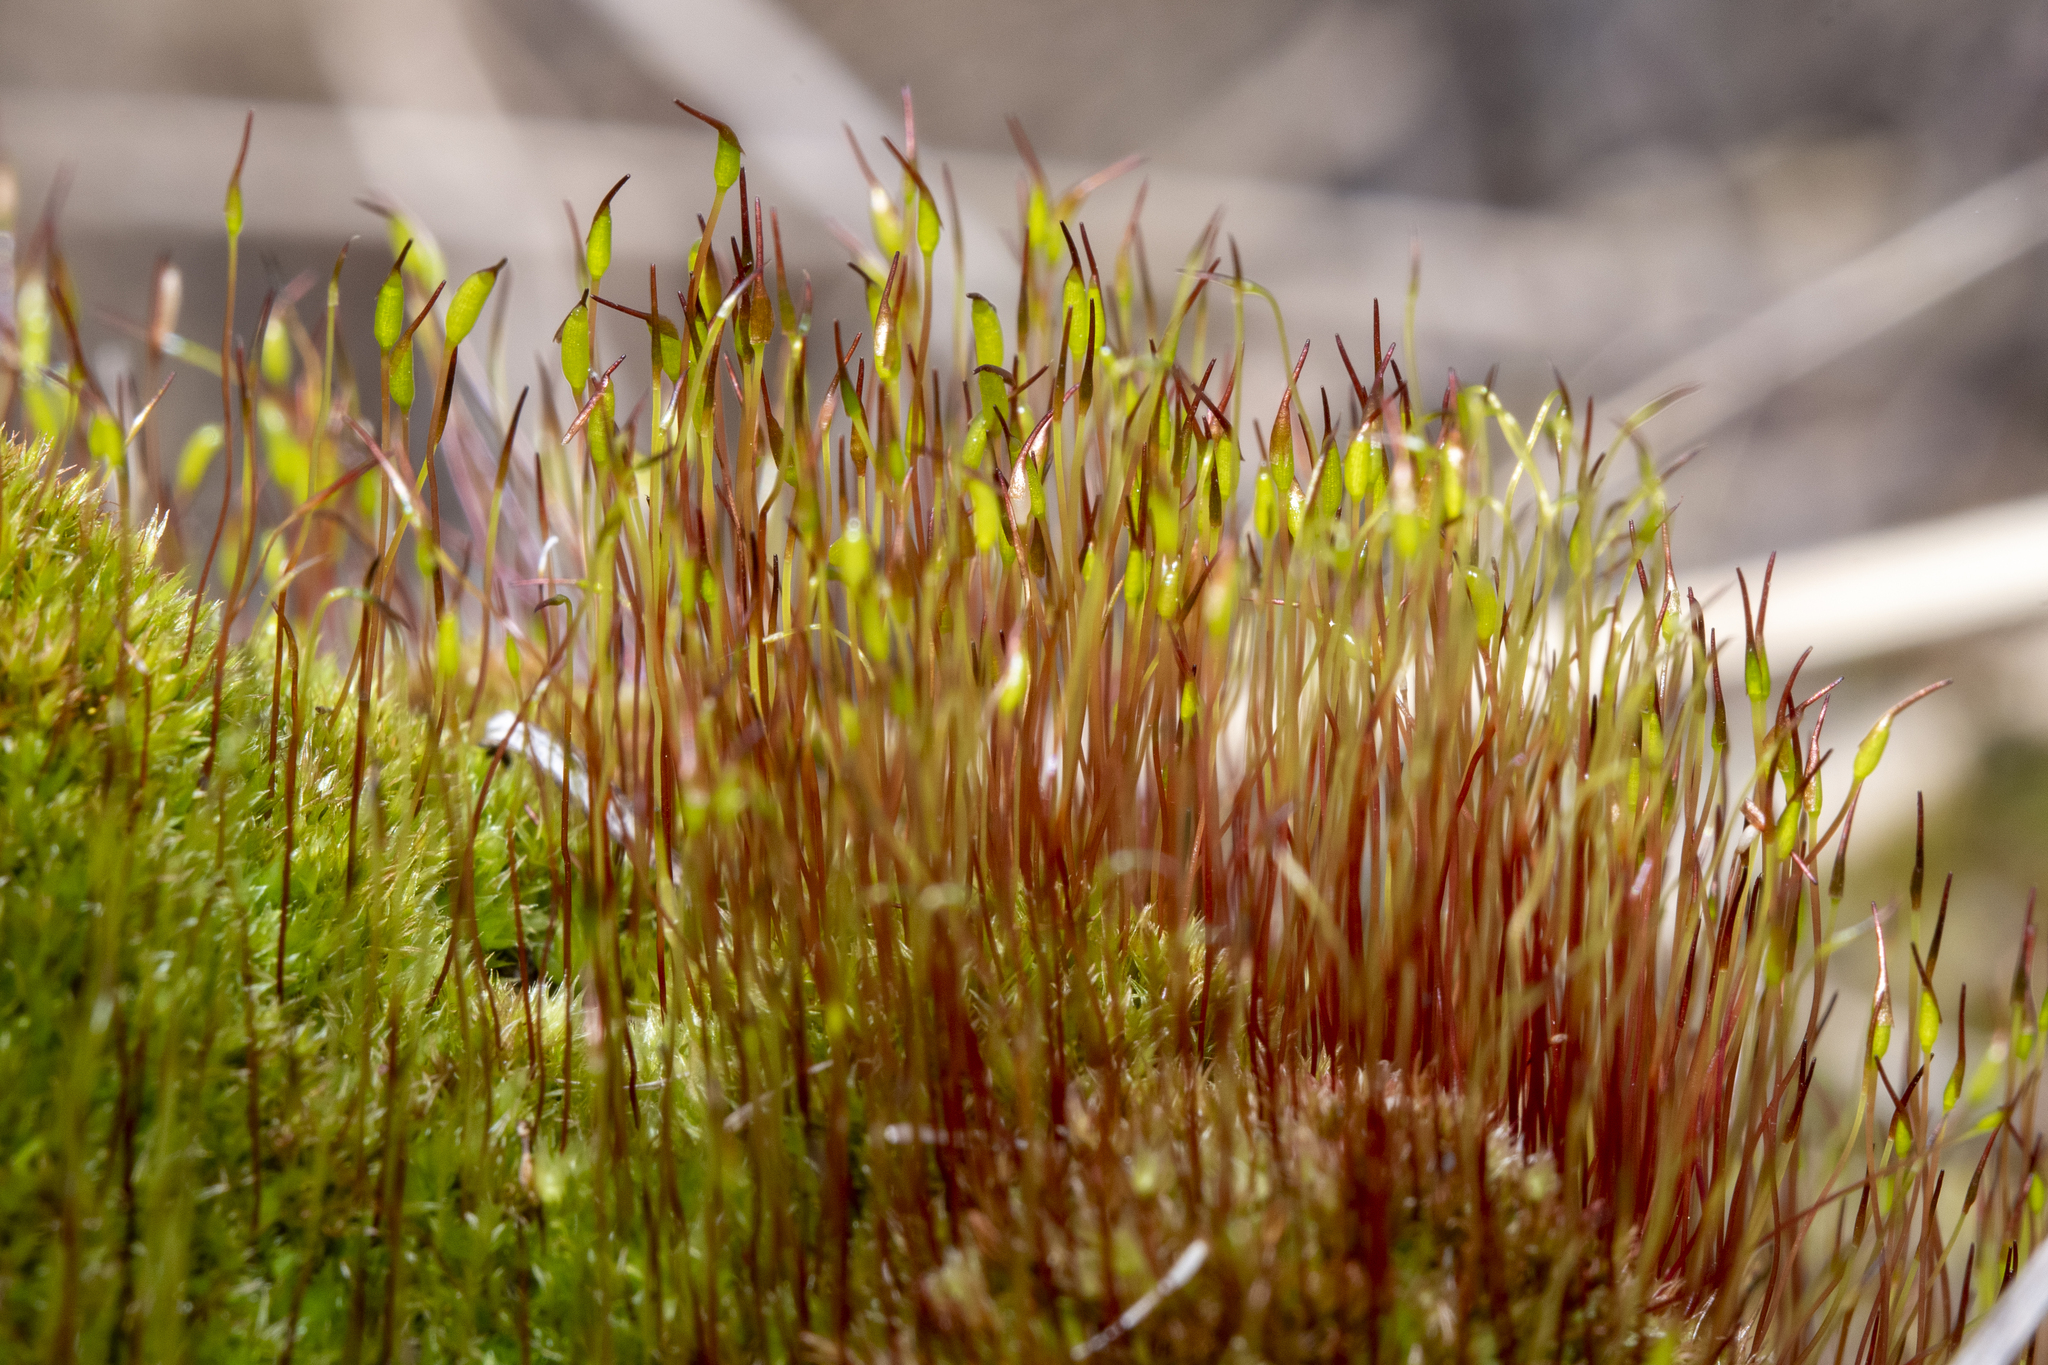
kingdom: Plantae
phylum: Bryophyta
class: Bryopsida
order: Dicranales
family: Ditrichaceae
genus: Ceratodon
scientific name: Ceratodon purpureus
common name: Redshank
